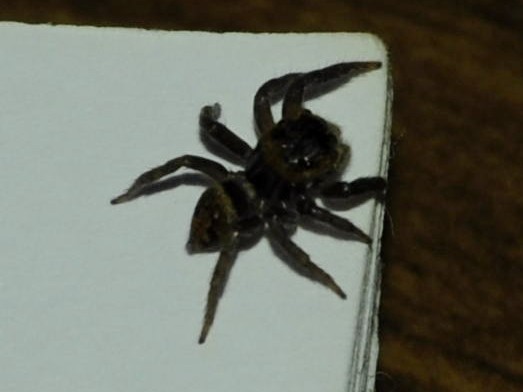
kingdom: Animalia
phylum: Arthropoda
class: Arachnida
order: Araneae
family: Salticidae
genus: Hasarius
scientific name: Hasarius adansoni
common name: Jumping spider
